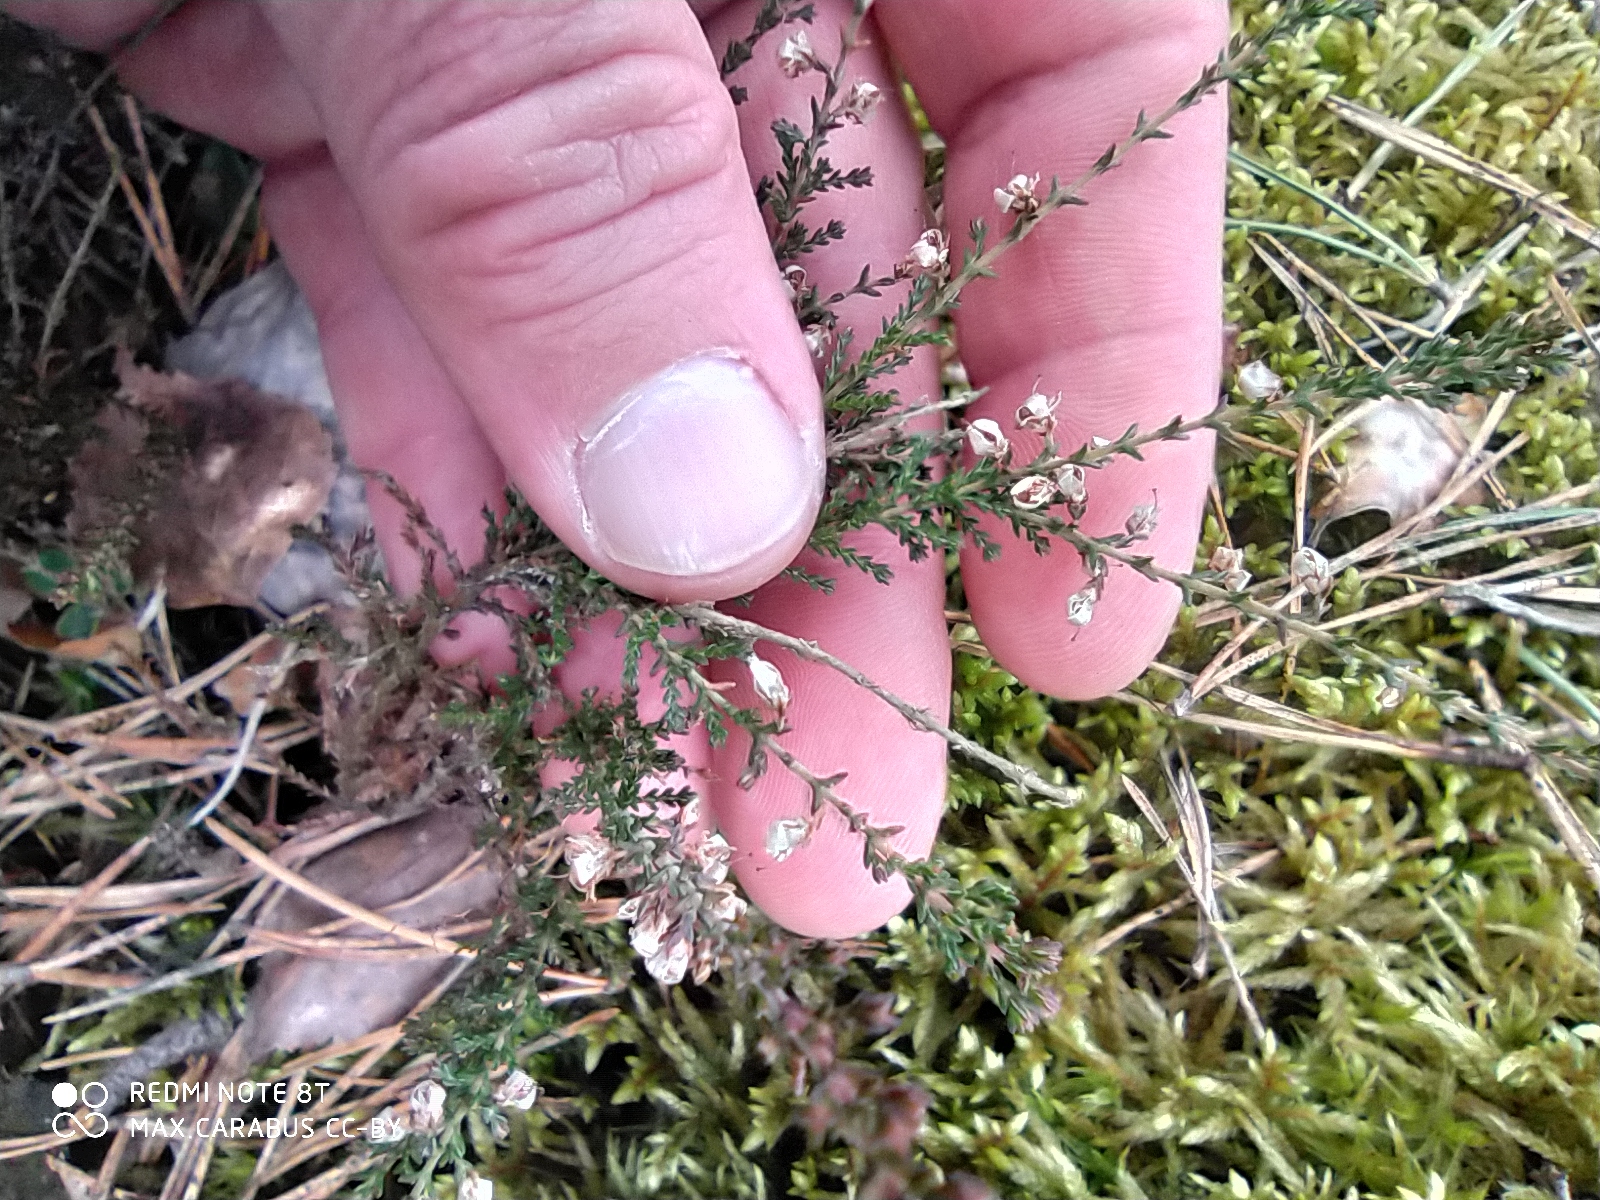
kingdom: Plantae
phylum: Tracheophyta
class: Magnoliopsida
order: Ericales
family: Ericaceae
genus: Calluna
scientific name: Calluna vulgaris
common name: Heather
